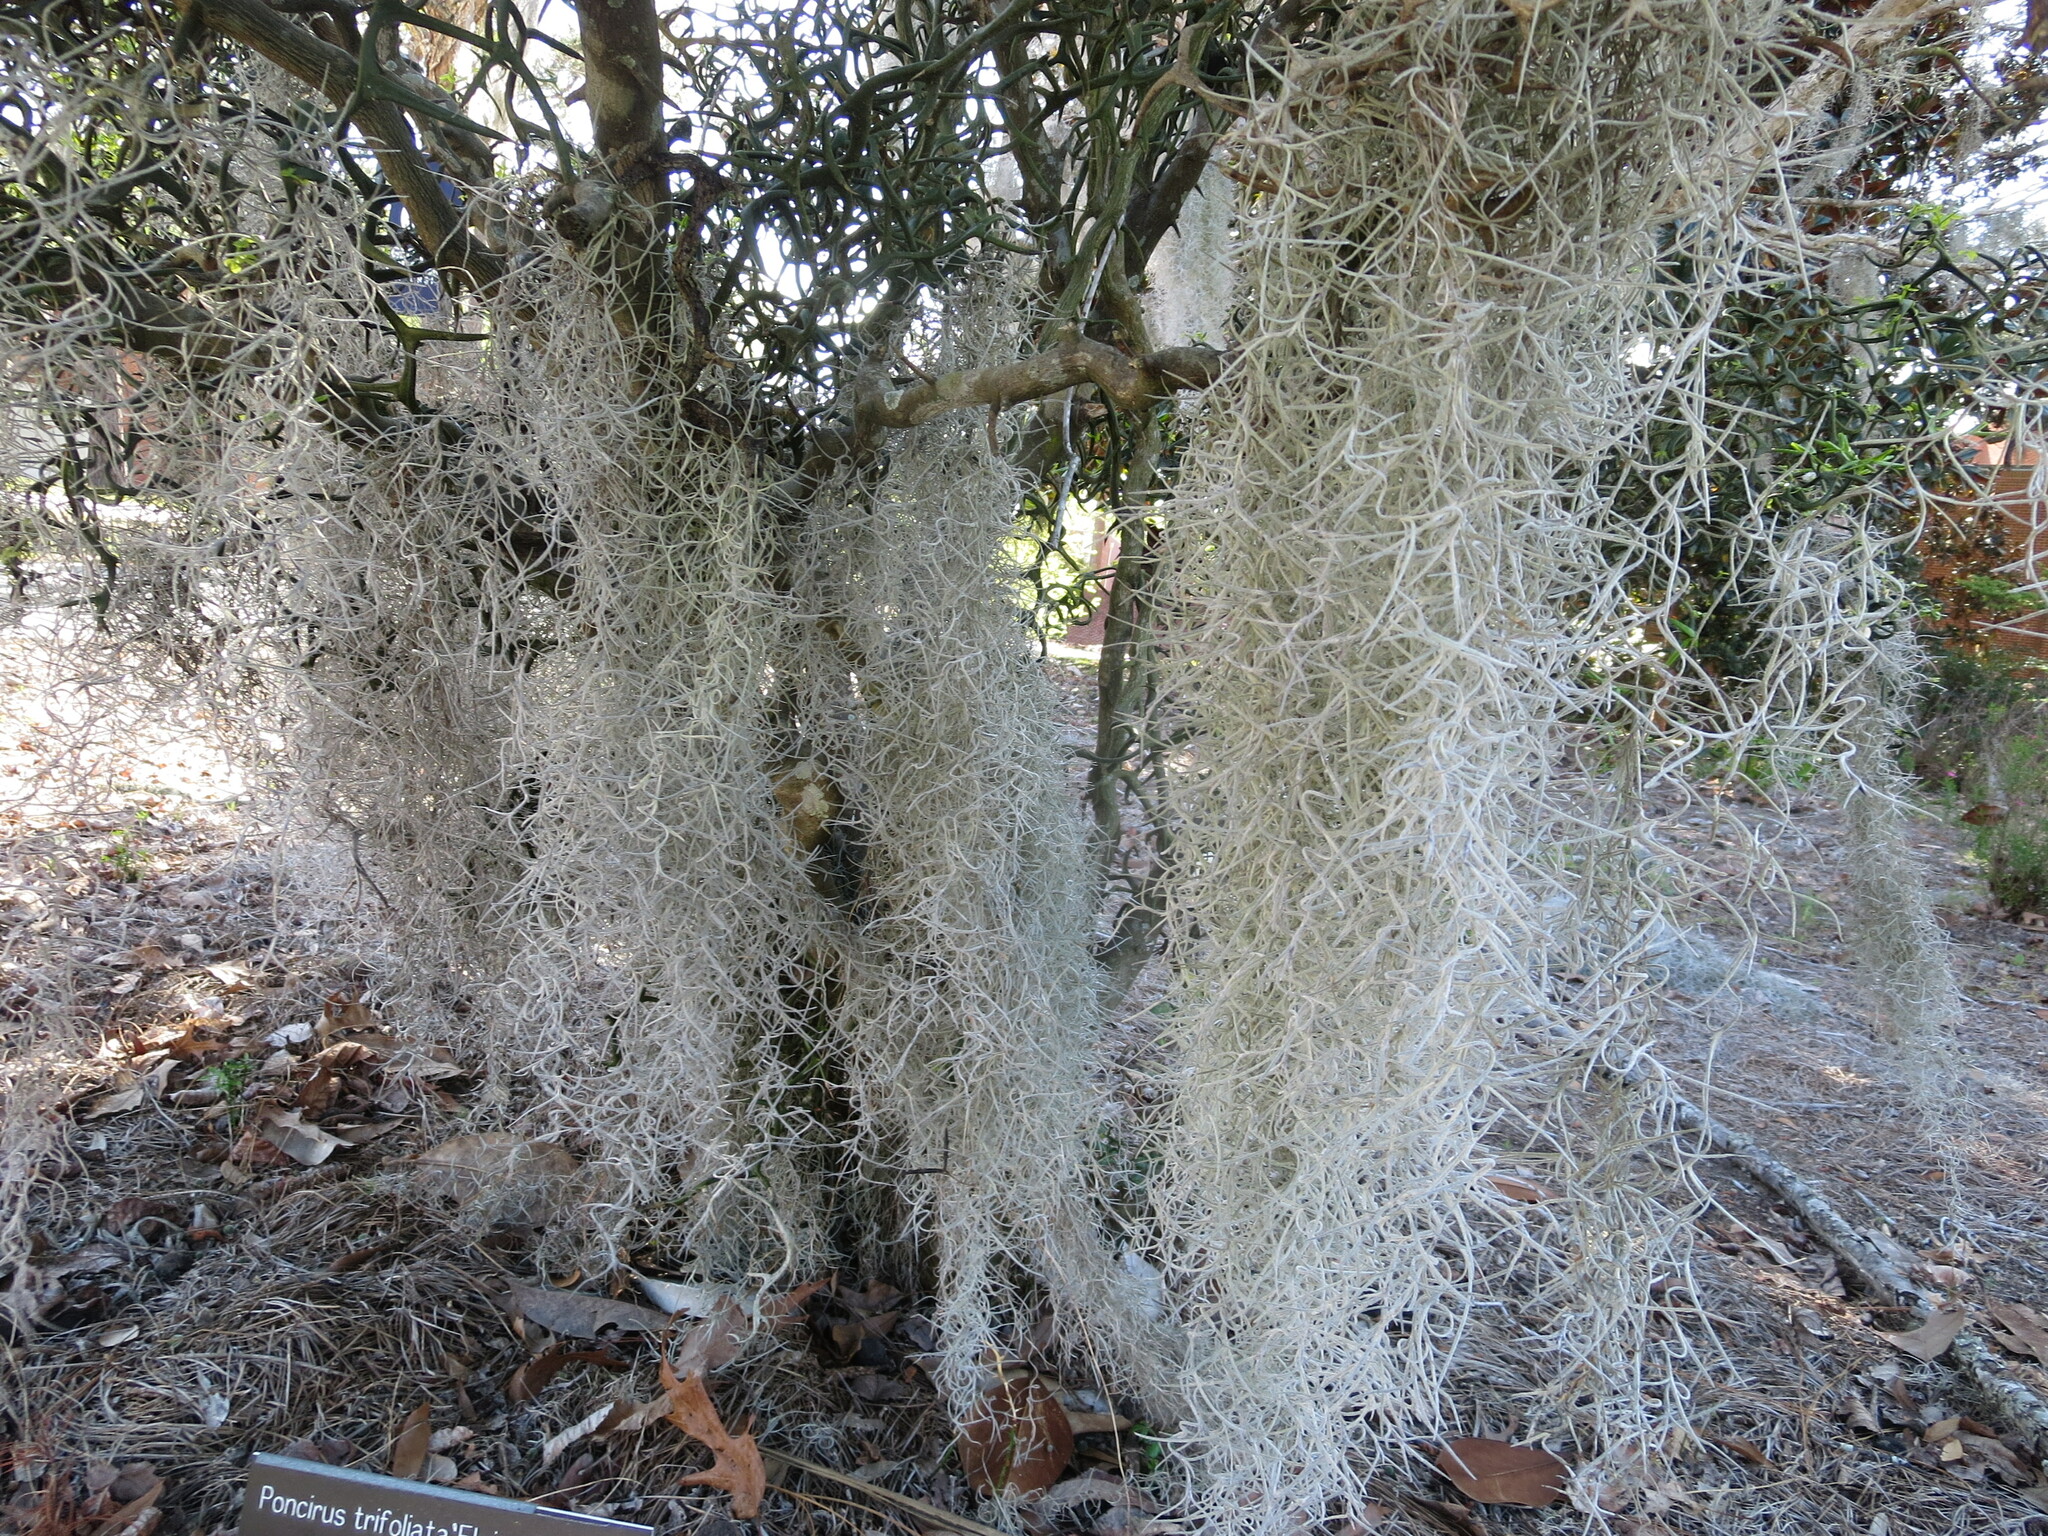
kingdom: Plantae
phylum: Tracheophyta
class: Liliopsida
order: Poales
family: Bromeliaceae
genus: Tillandsia
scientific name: Tillandsia usneoides
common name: Spanish moss
